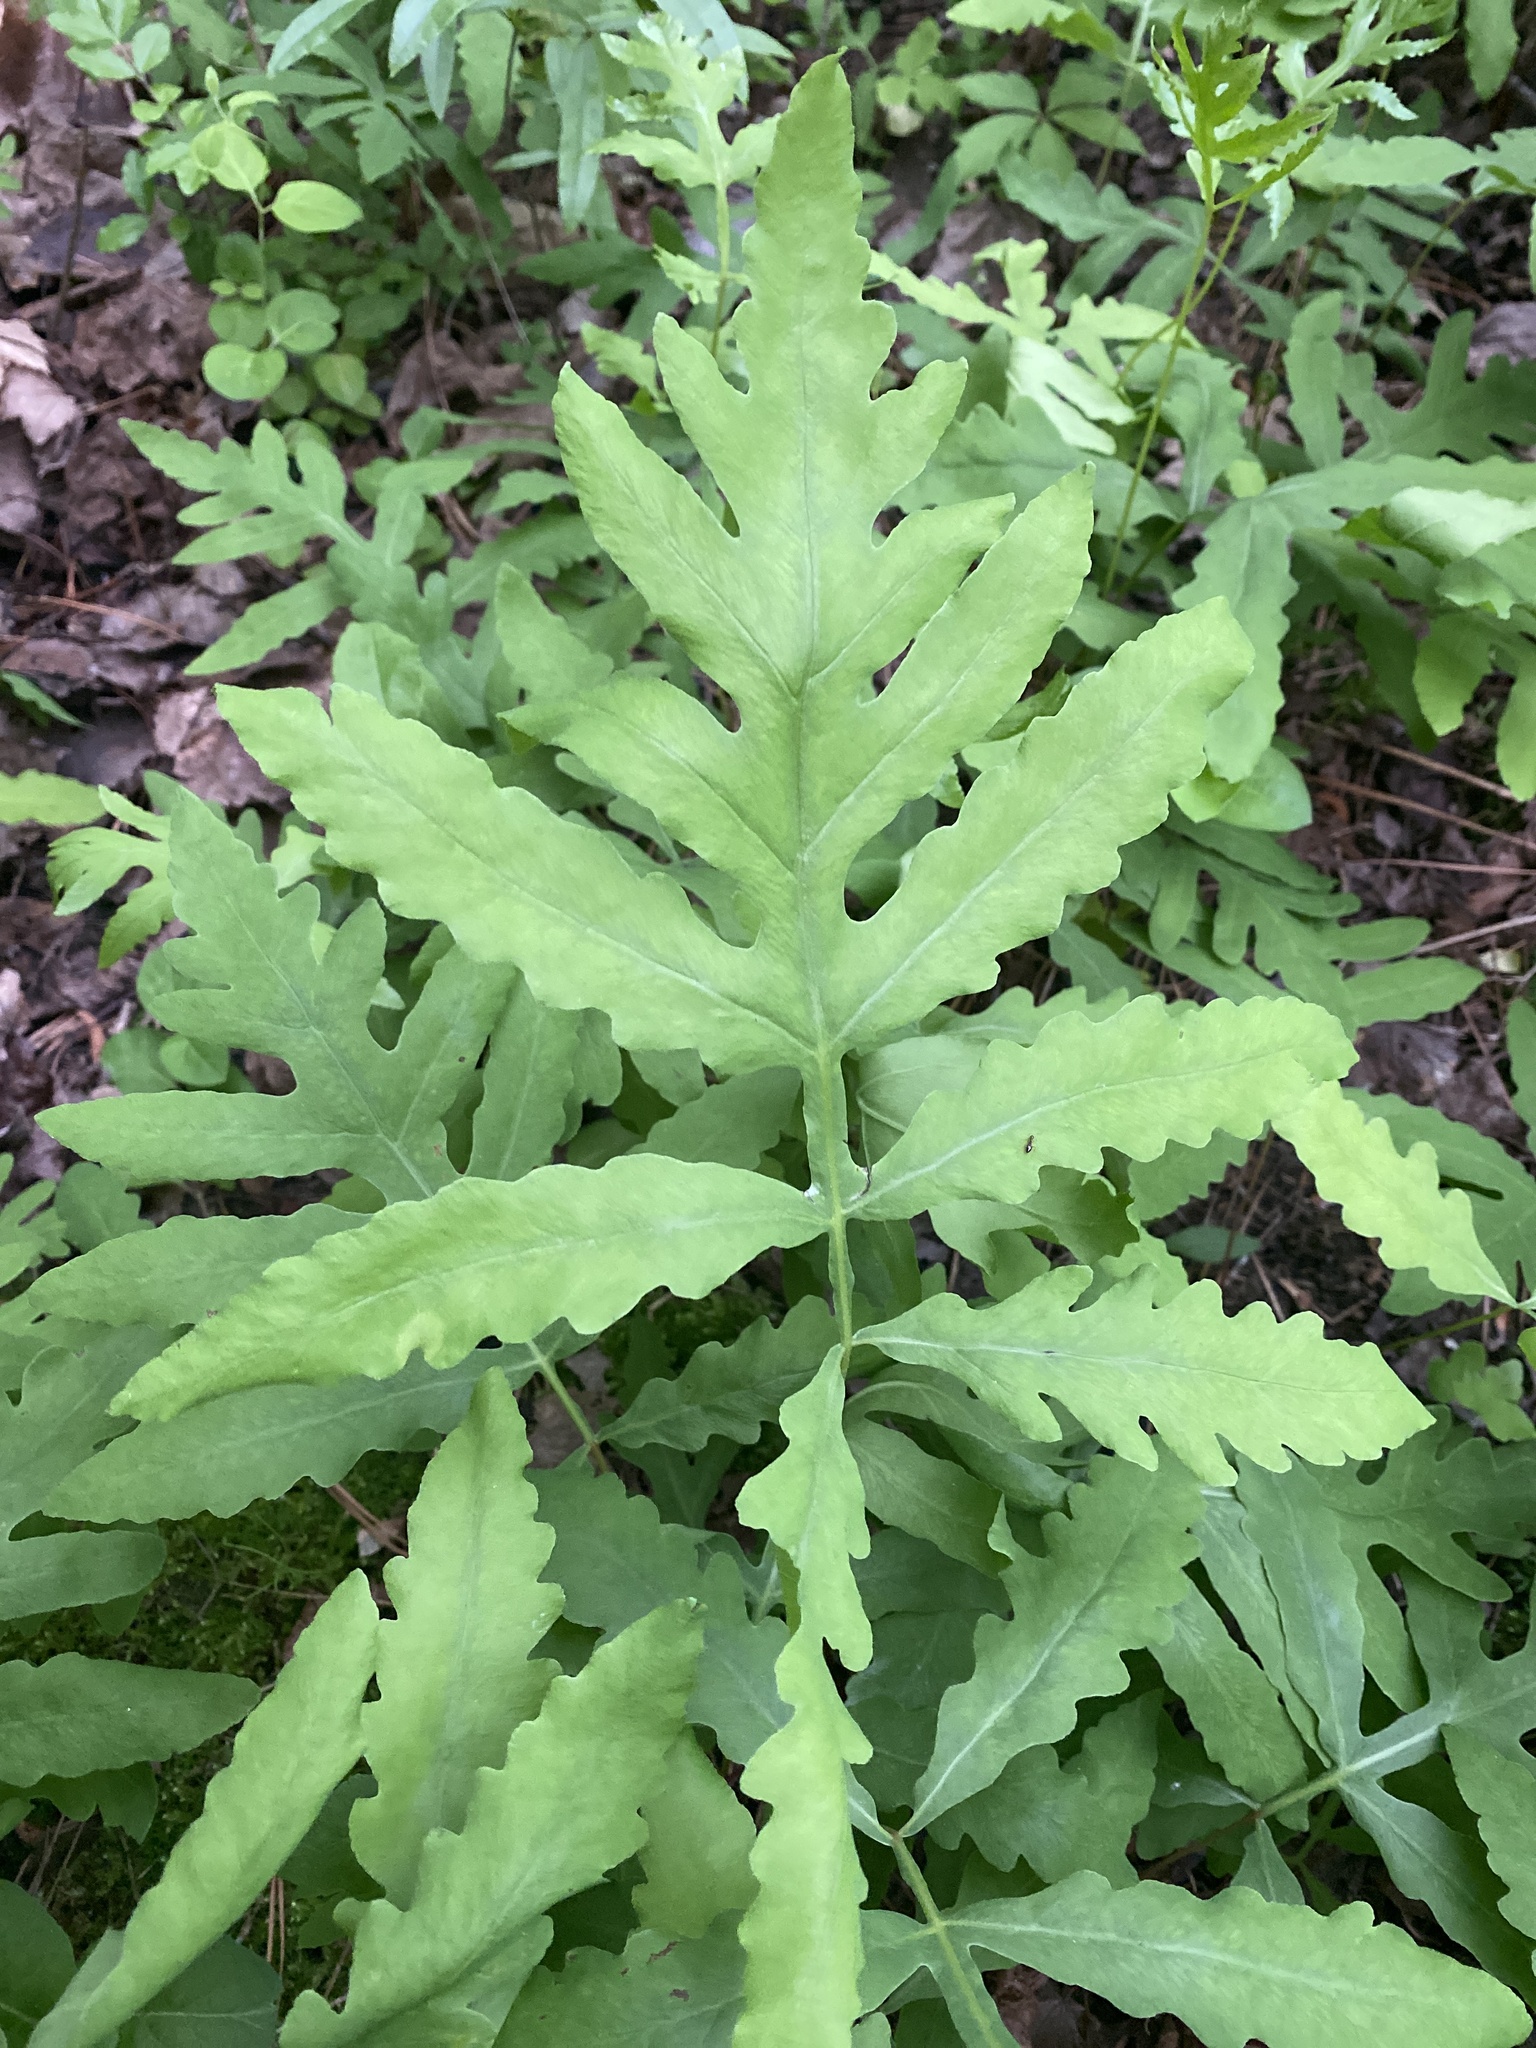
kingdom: Plantae
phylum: Tracheophyta
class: Polypodiopsida
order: Polypodiales
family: Onocleaceae
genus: Onoclea
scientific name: Onoclea sensibilis
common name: Sensitive fern
